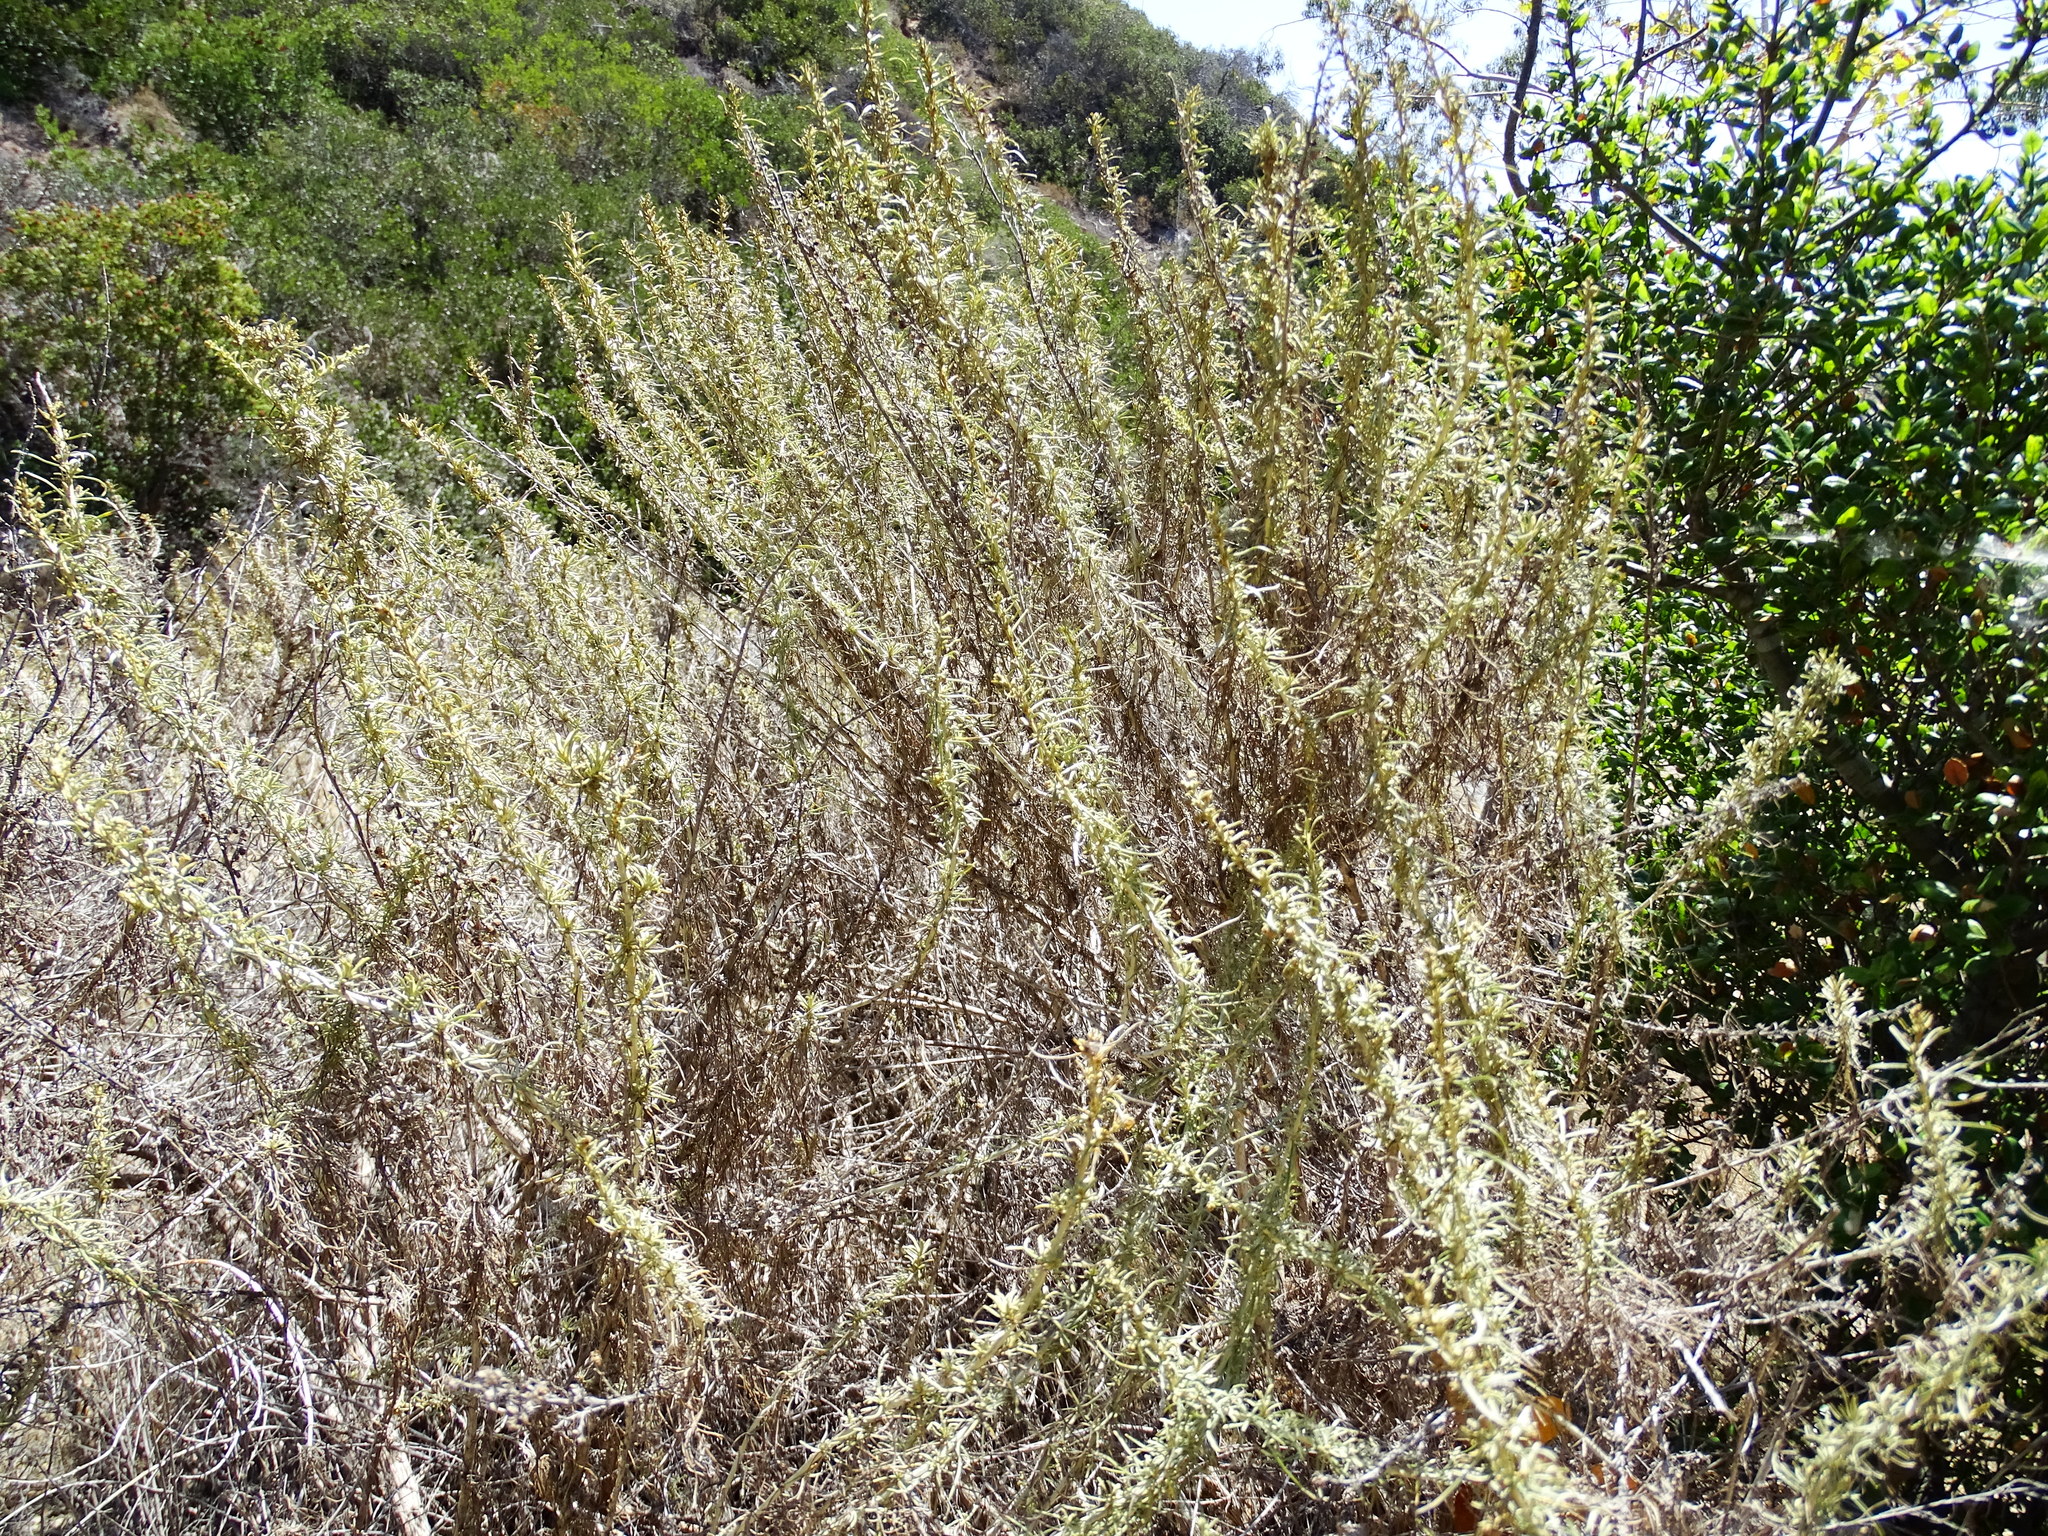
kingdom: Plantae
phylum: Tracheophyta
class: Magnoliopsida
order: Asterales
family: Asteraceae
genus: Artemisia
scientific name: Artemisia californica
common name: California sagebrush
